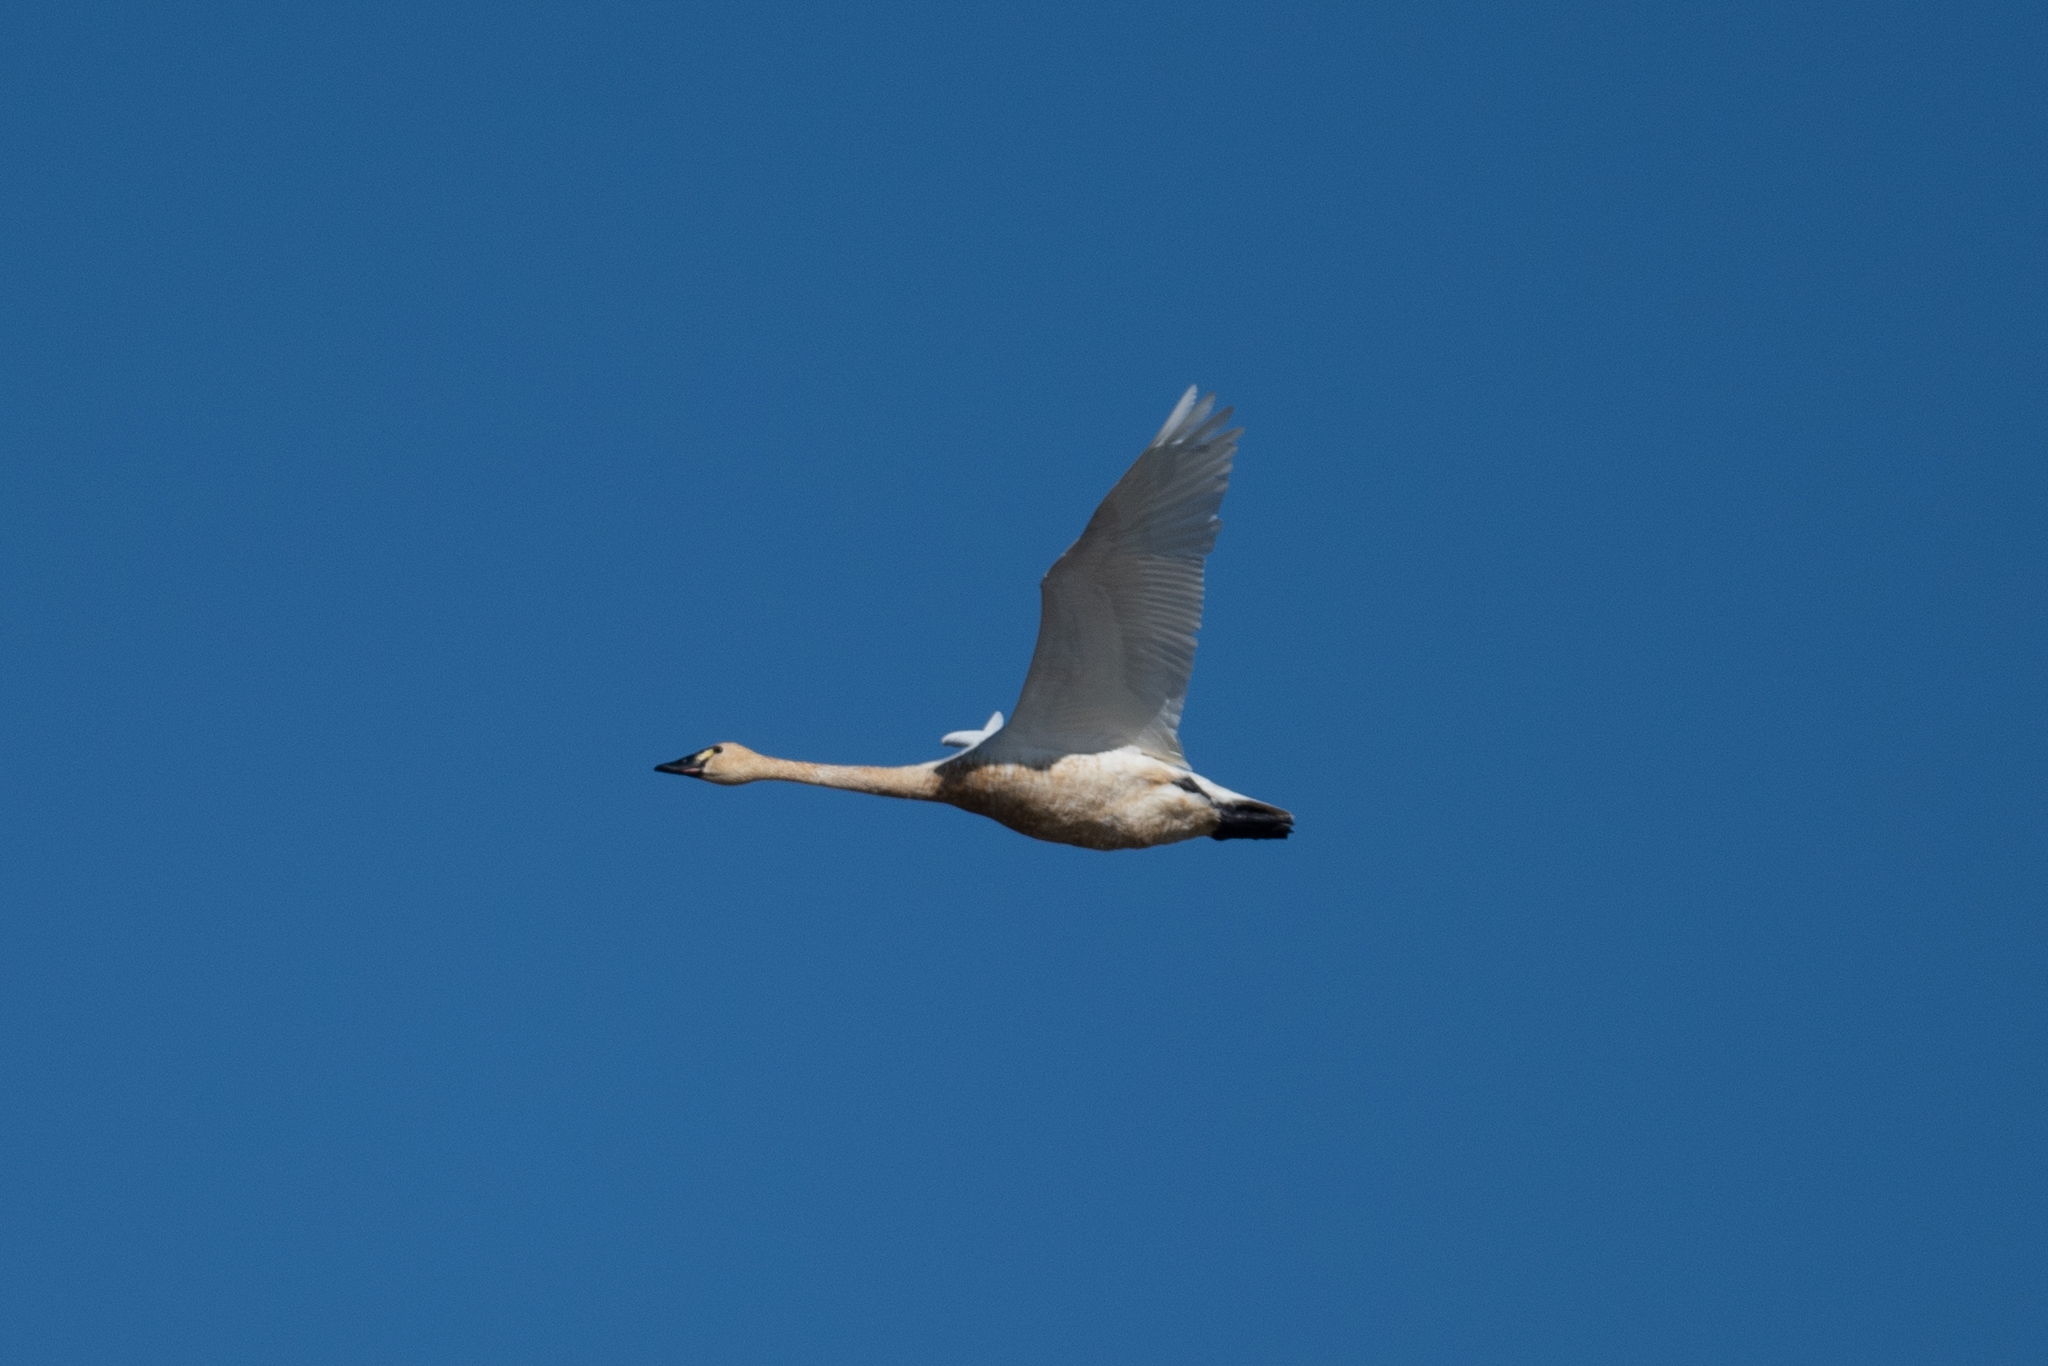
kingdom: Animalia
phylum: Chordata
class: Aves
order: Anseriformes
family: Anatidae
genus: Cygnus
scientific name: Cygnus columbianus
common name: Tundra swan
